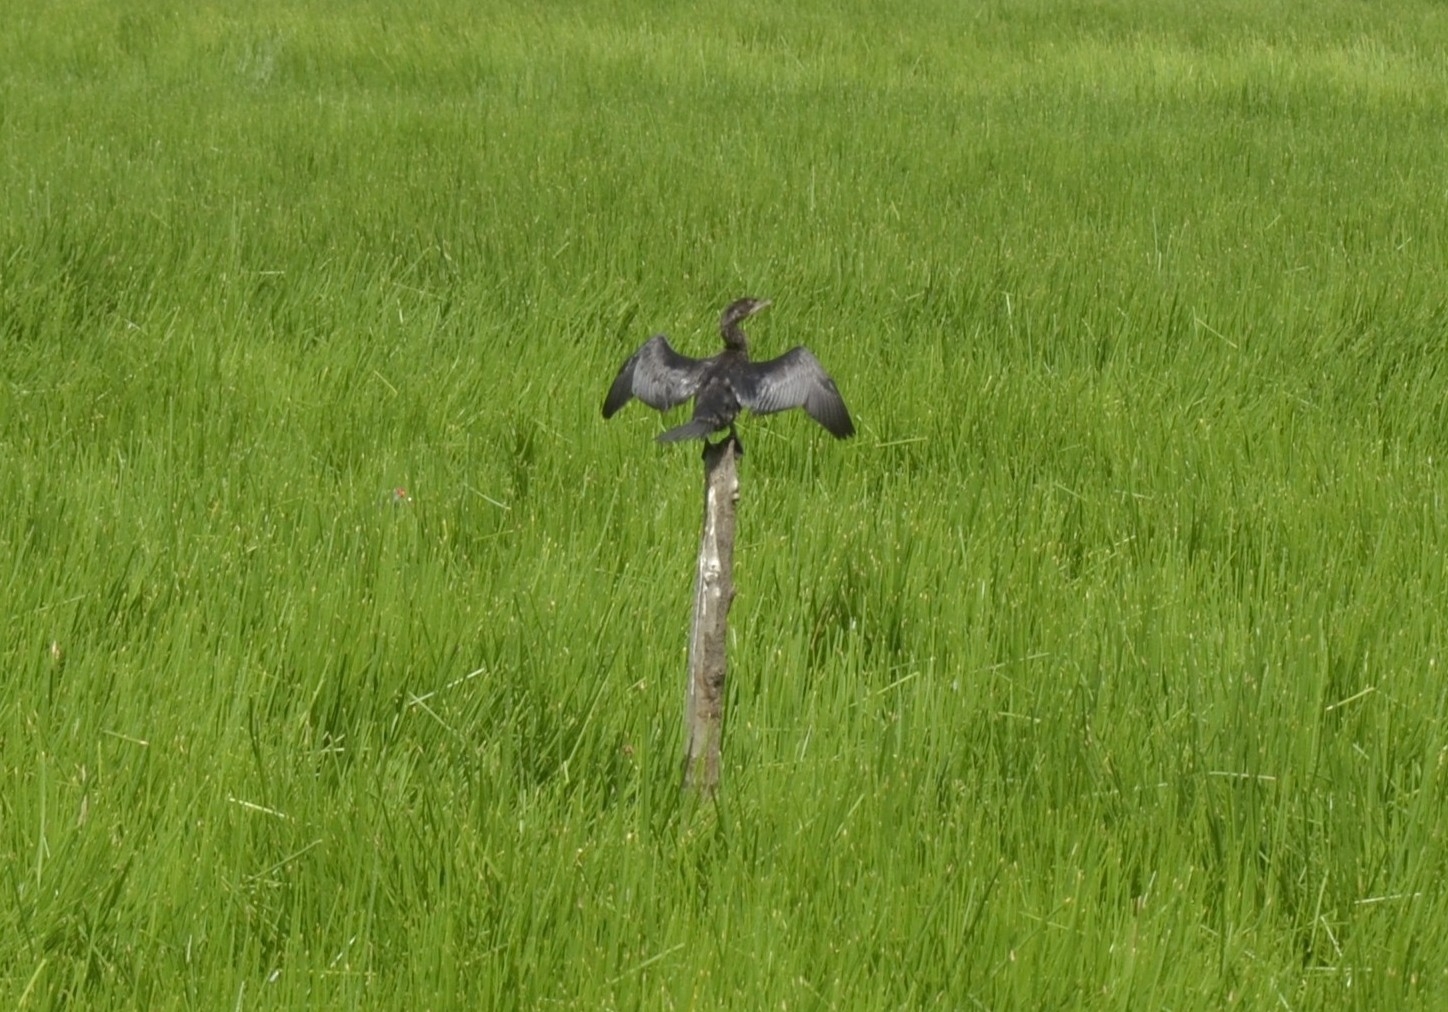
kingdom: Animalia
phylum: Chordata
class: Aves
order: Suliformes
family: Phalacrocoracidae
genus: Microcarbo
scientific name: Microcarbo niger
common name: Little cormorant
